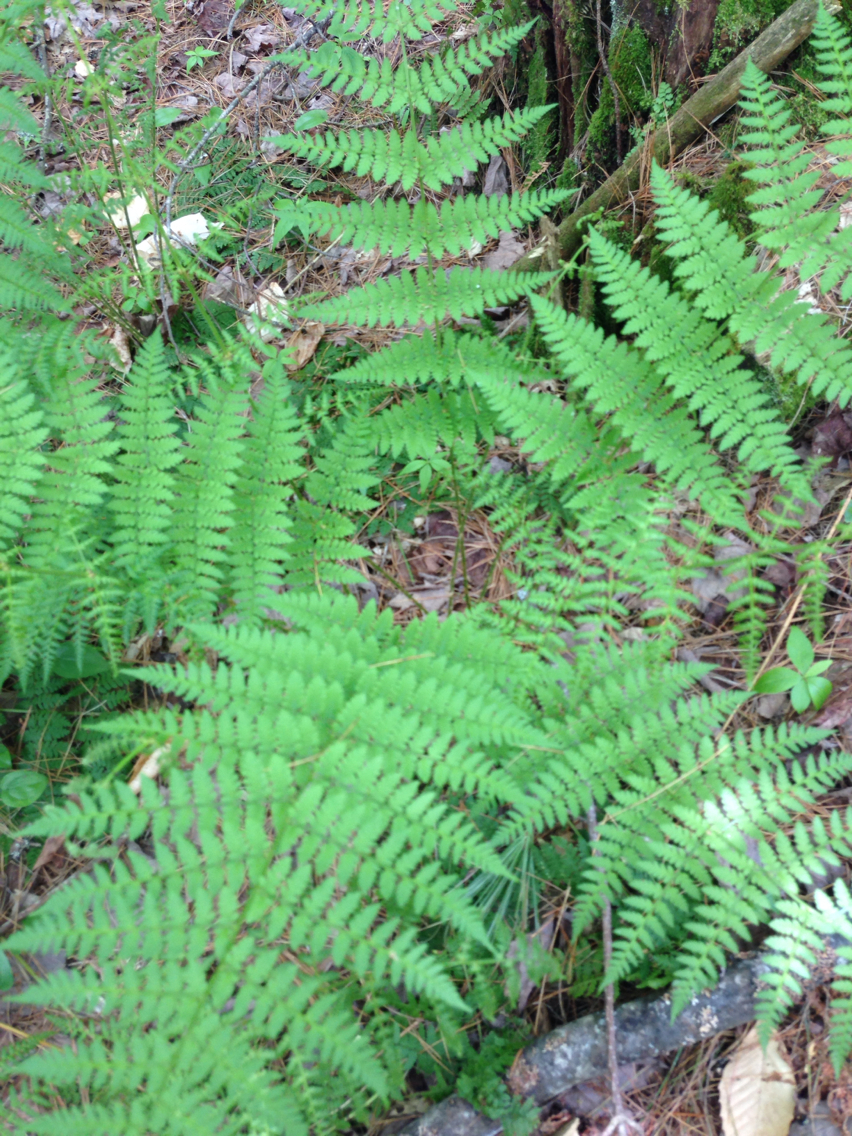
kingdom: Plantae
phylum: Tracheophyta
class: Polypodiopsida
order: Polypodiales
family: Dryopteridaceae
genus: Dryopteris
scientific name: Dryopteris intermedia
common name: Evergreen wood fern
